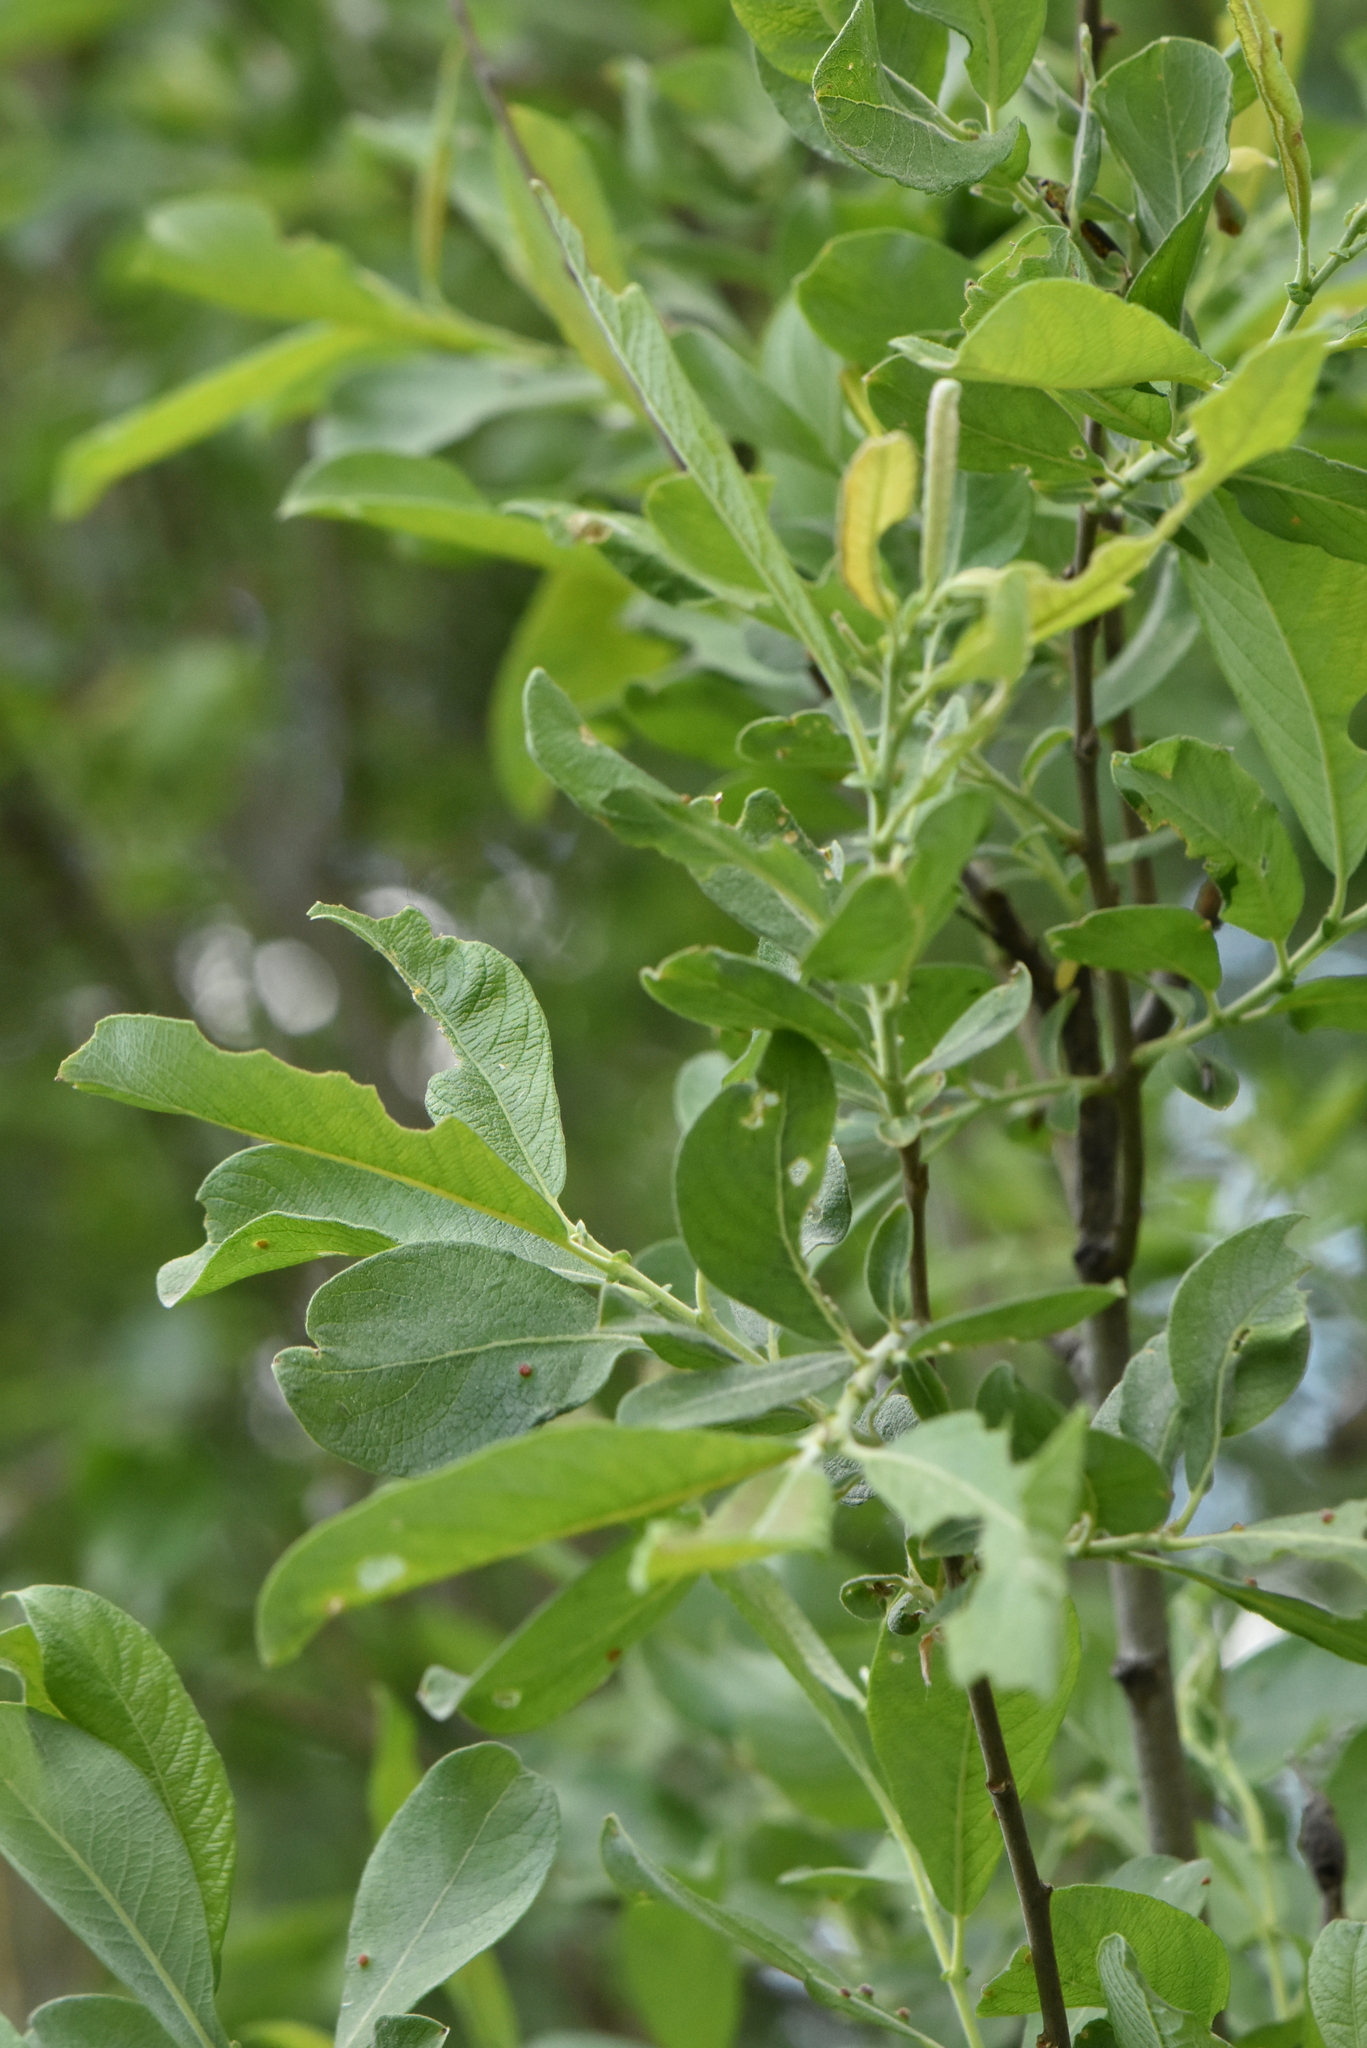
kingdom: Plantae
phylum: Tracheophyta
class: Magnoliopsida
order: Malpighiales
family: Salicaceae
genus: Salix
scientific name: Salix aurita
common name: Eared willow
